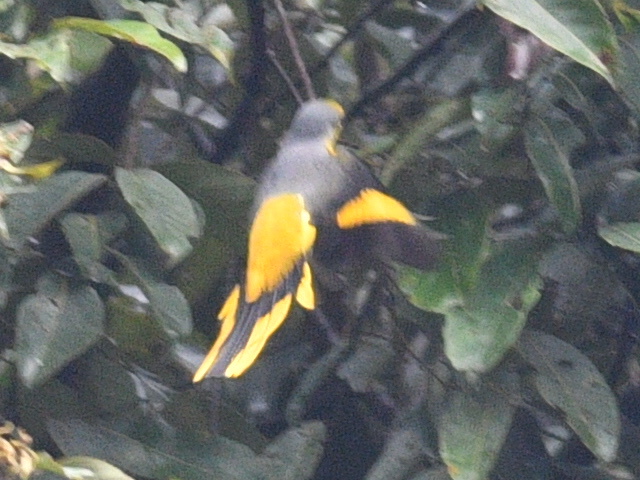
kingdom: Animalia
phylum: Chordata
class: Aves
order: Passeriformes
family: Campephagidae
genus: Pericrocotus
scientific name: Pericrocotus speciosus
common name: Scarlet minivet
